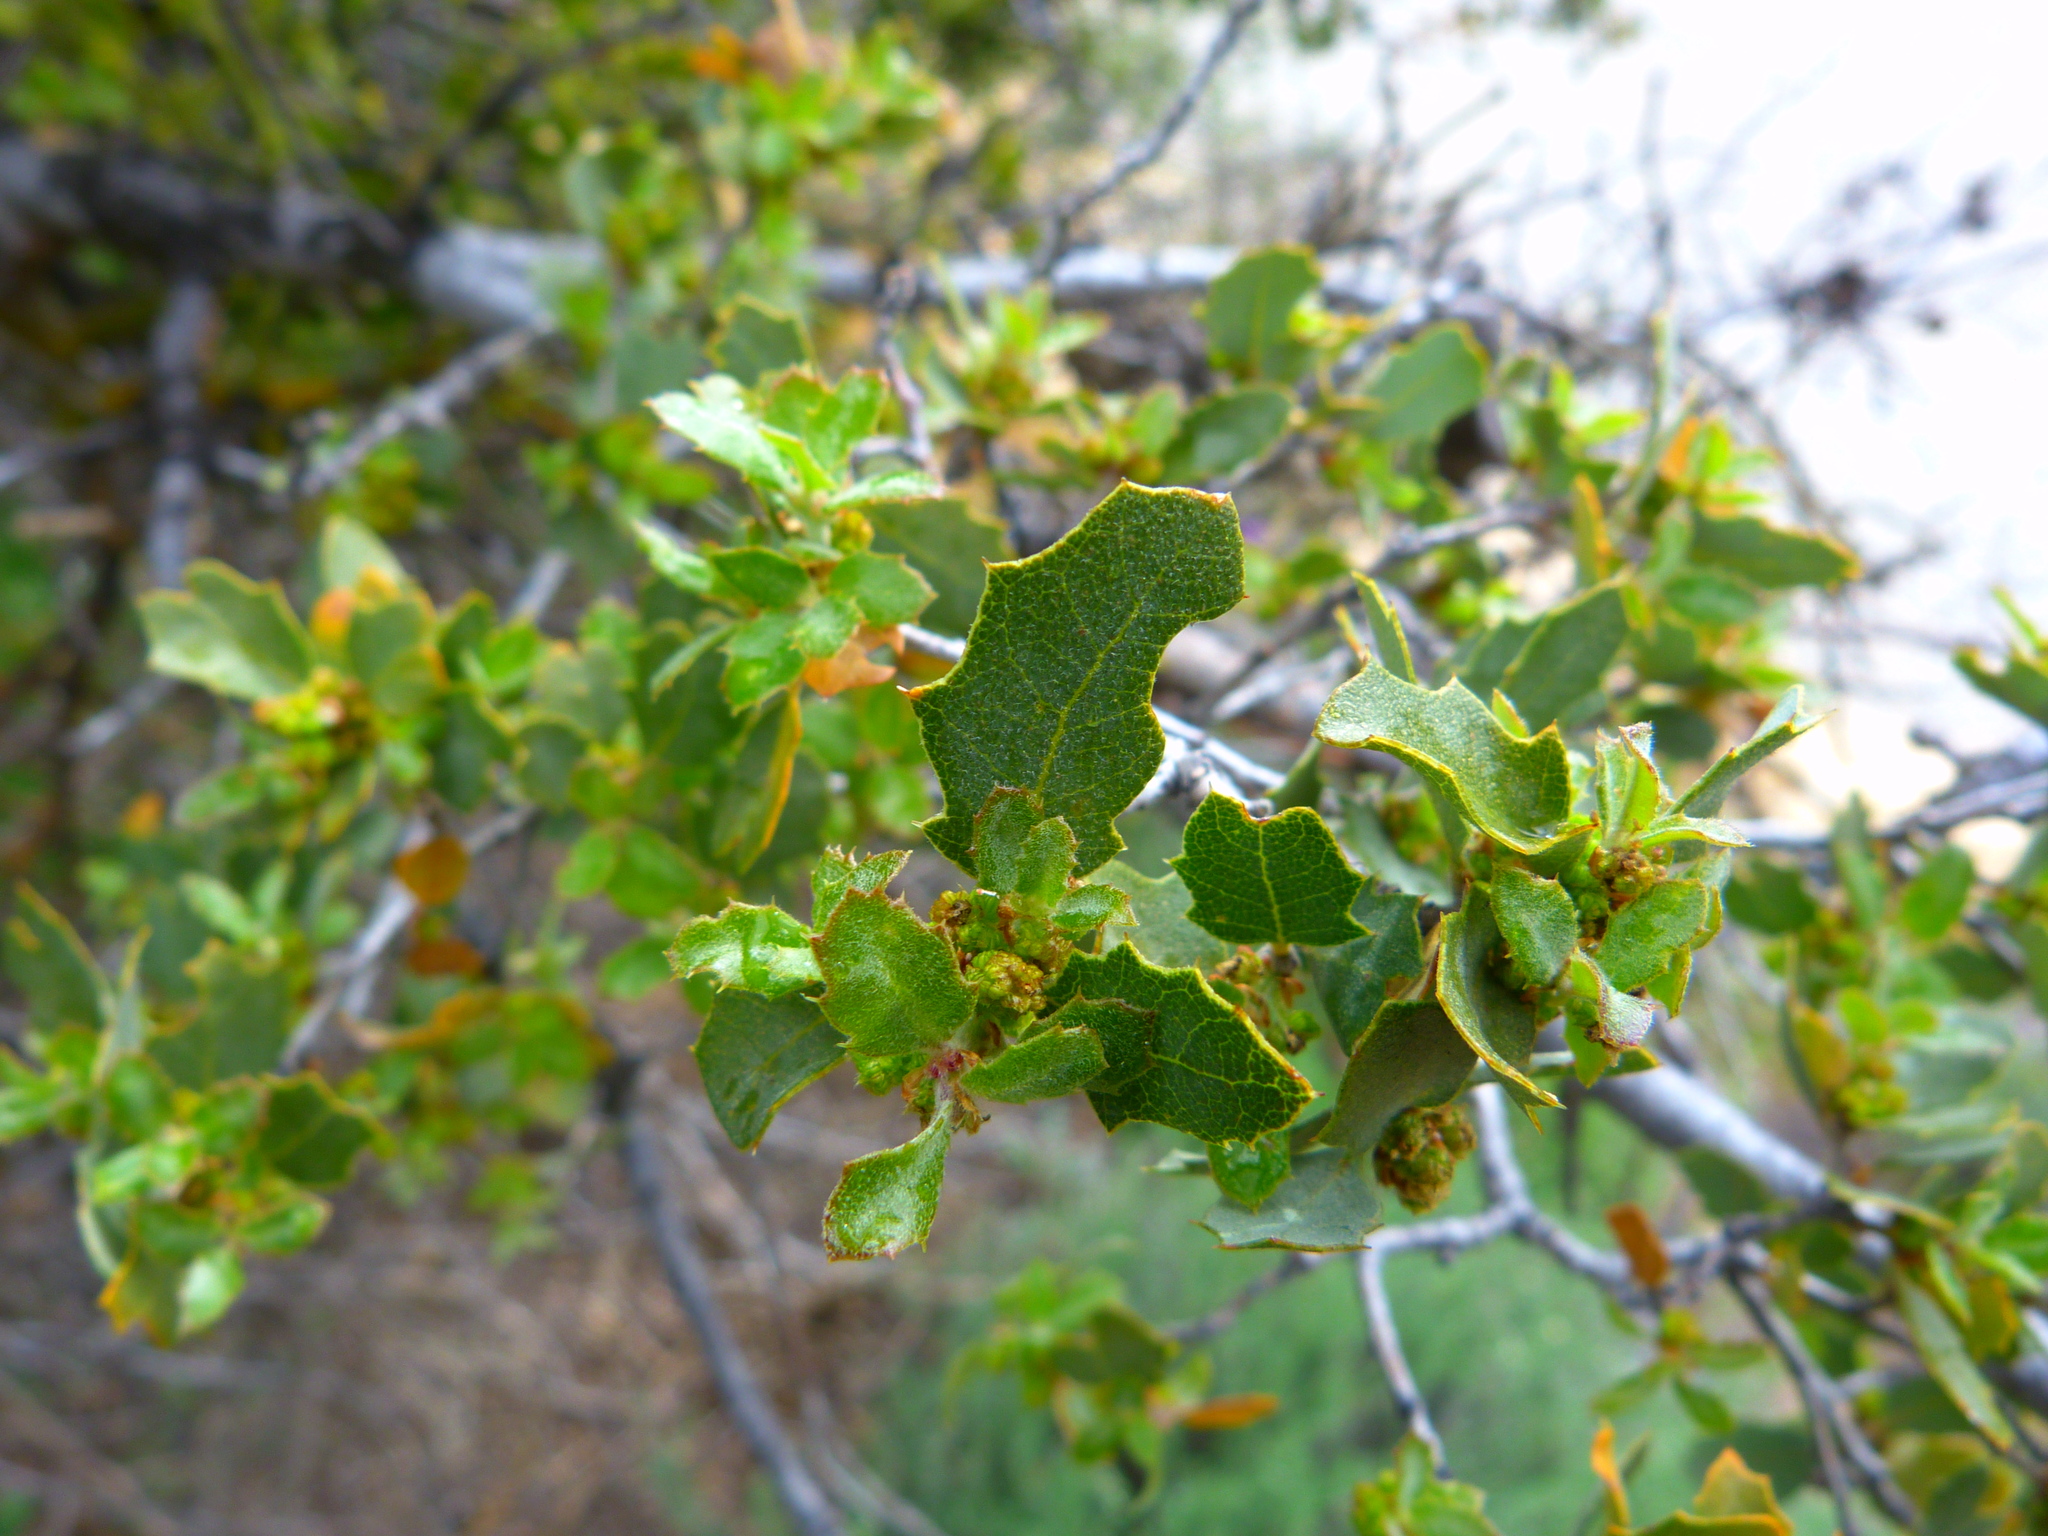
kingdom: Plantae
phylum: Tracheophyta
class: Magnoliopsida
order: Fagales
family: Fagaceae
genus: Quercus
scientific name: Quercus john-tuckeri
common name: Tucker's oak
